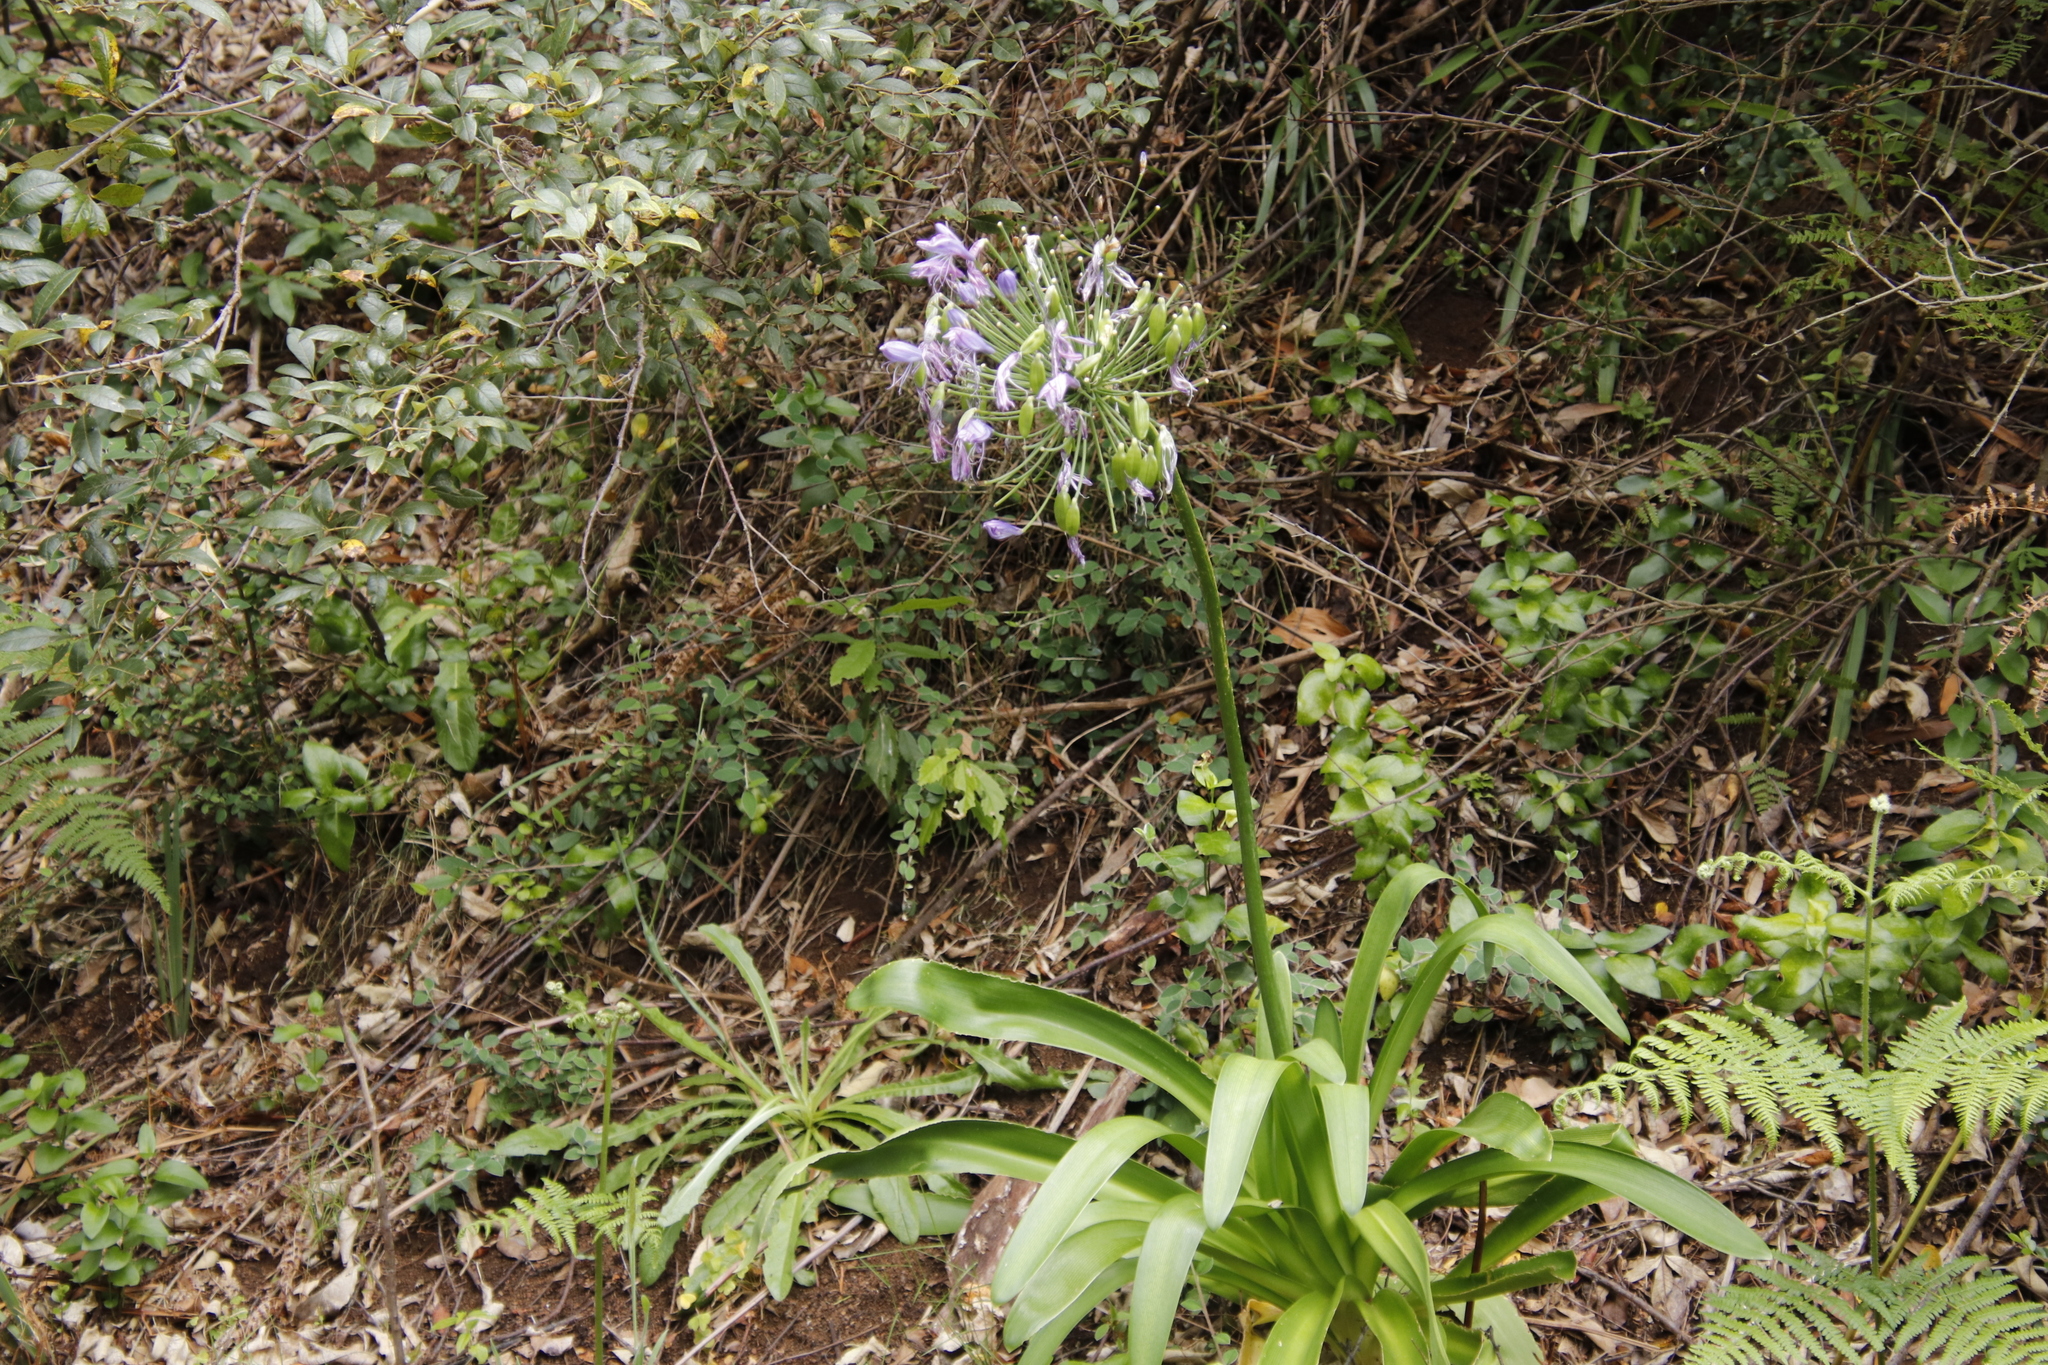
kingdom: Plantae
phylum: Tracheophyta
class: Liliopsida
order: Asparagales
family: Amaryllidaceae
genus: Agapanthus
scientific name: Agapanthus praecox
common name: African-lily
